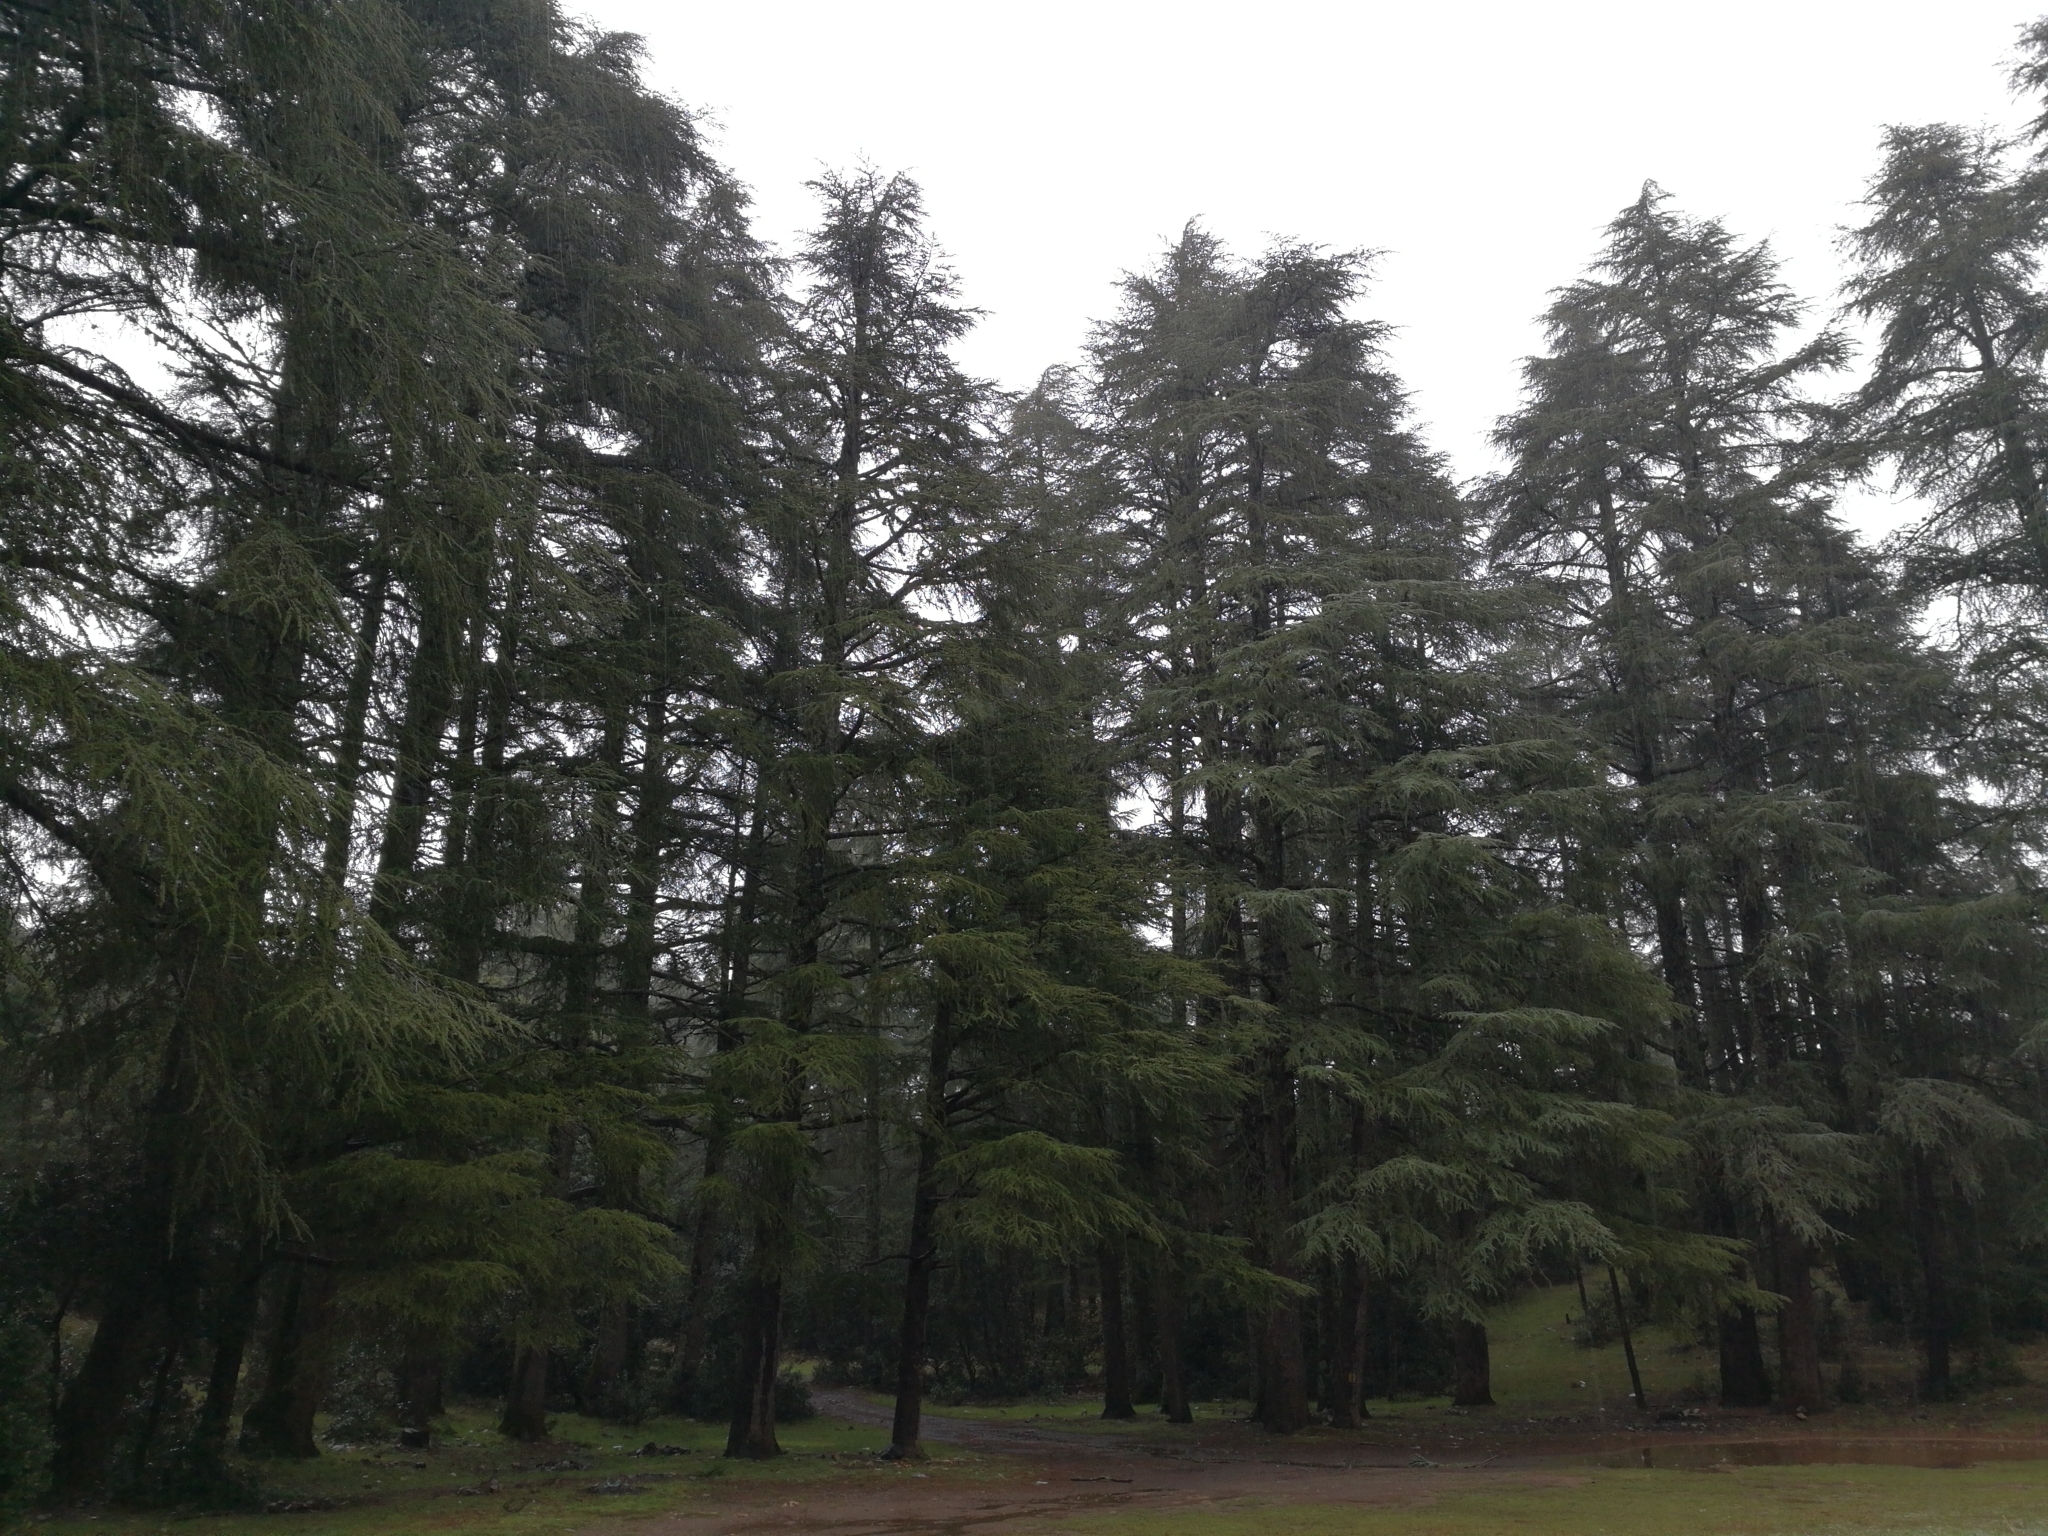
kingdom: Plantae
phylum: Tracheophyta
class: Pinopsida
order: Pinales
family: Pinaceae
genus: Cedrus
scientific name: Cedrus atlantica
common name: Atlas cedar
